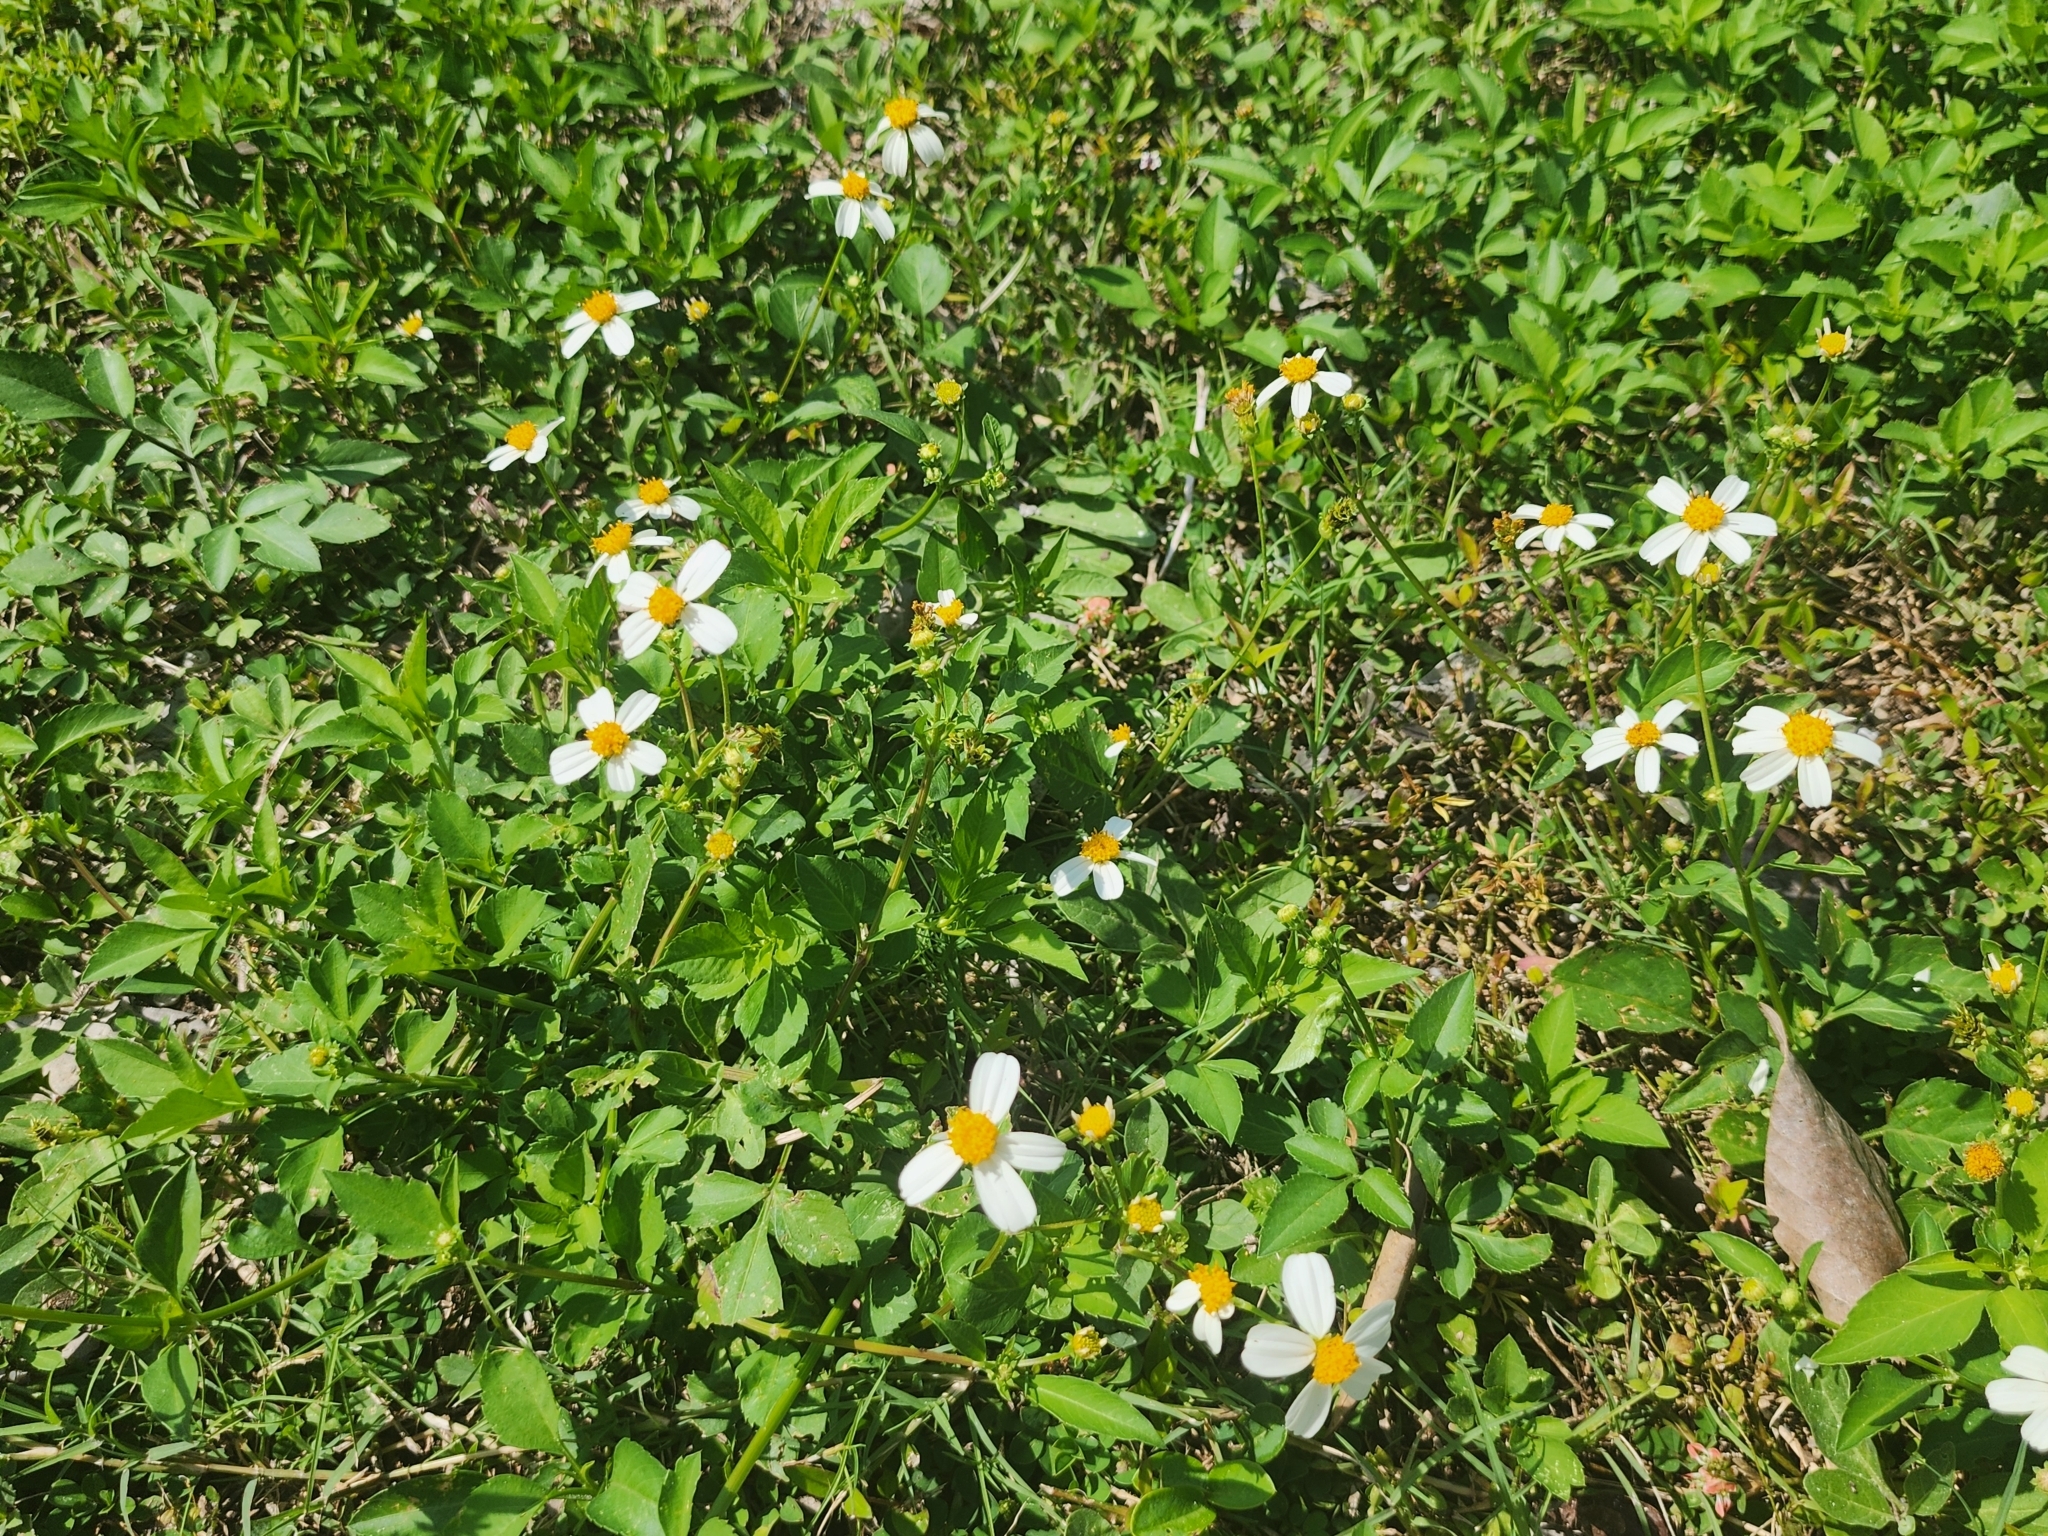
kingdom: Plantae
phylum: Tracheophyta
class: Magnoliopsida
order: Asterales
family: Asteraceae
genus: Bidens
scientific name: Bidens alba
